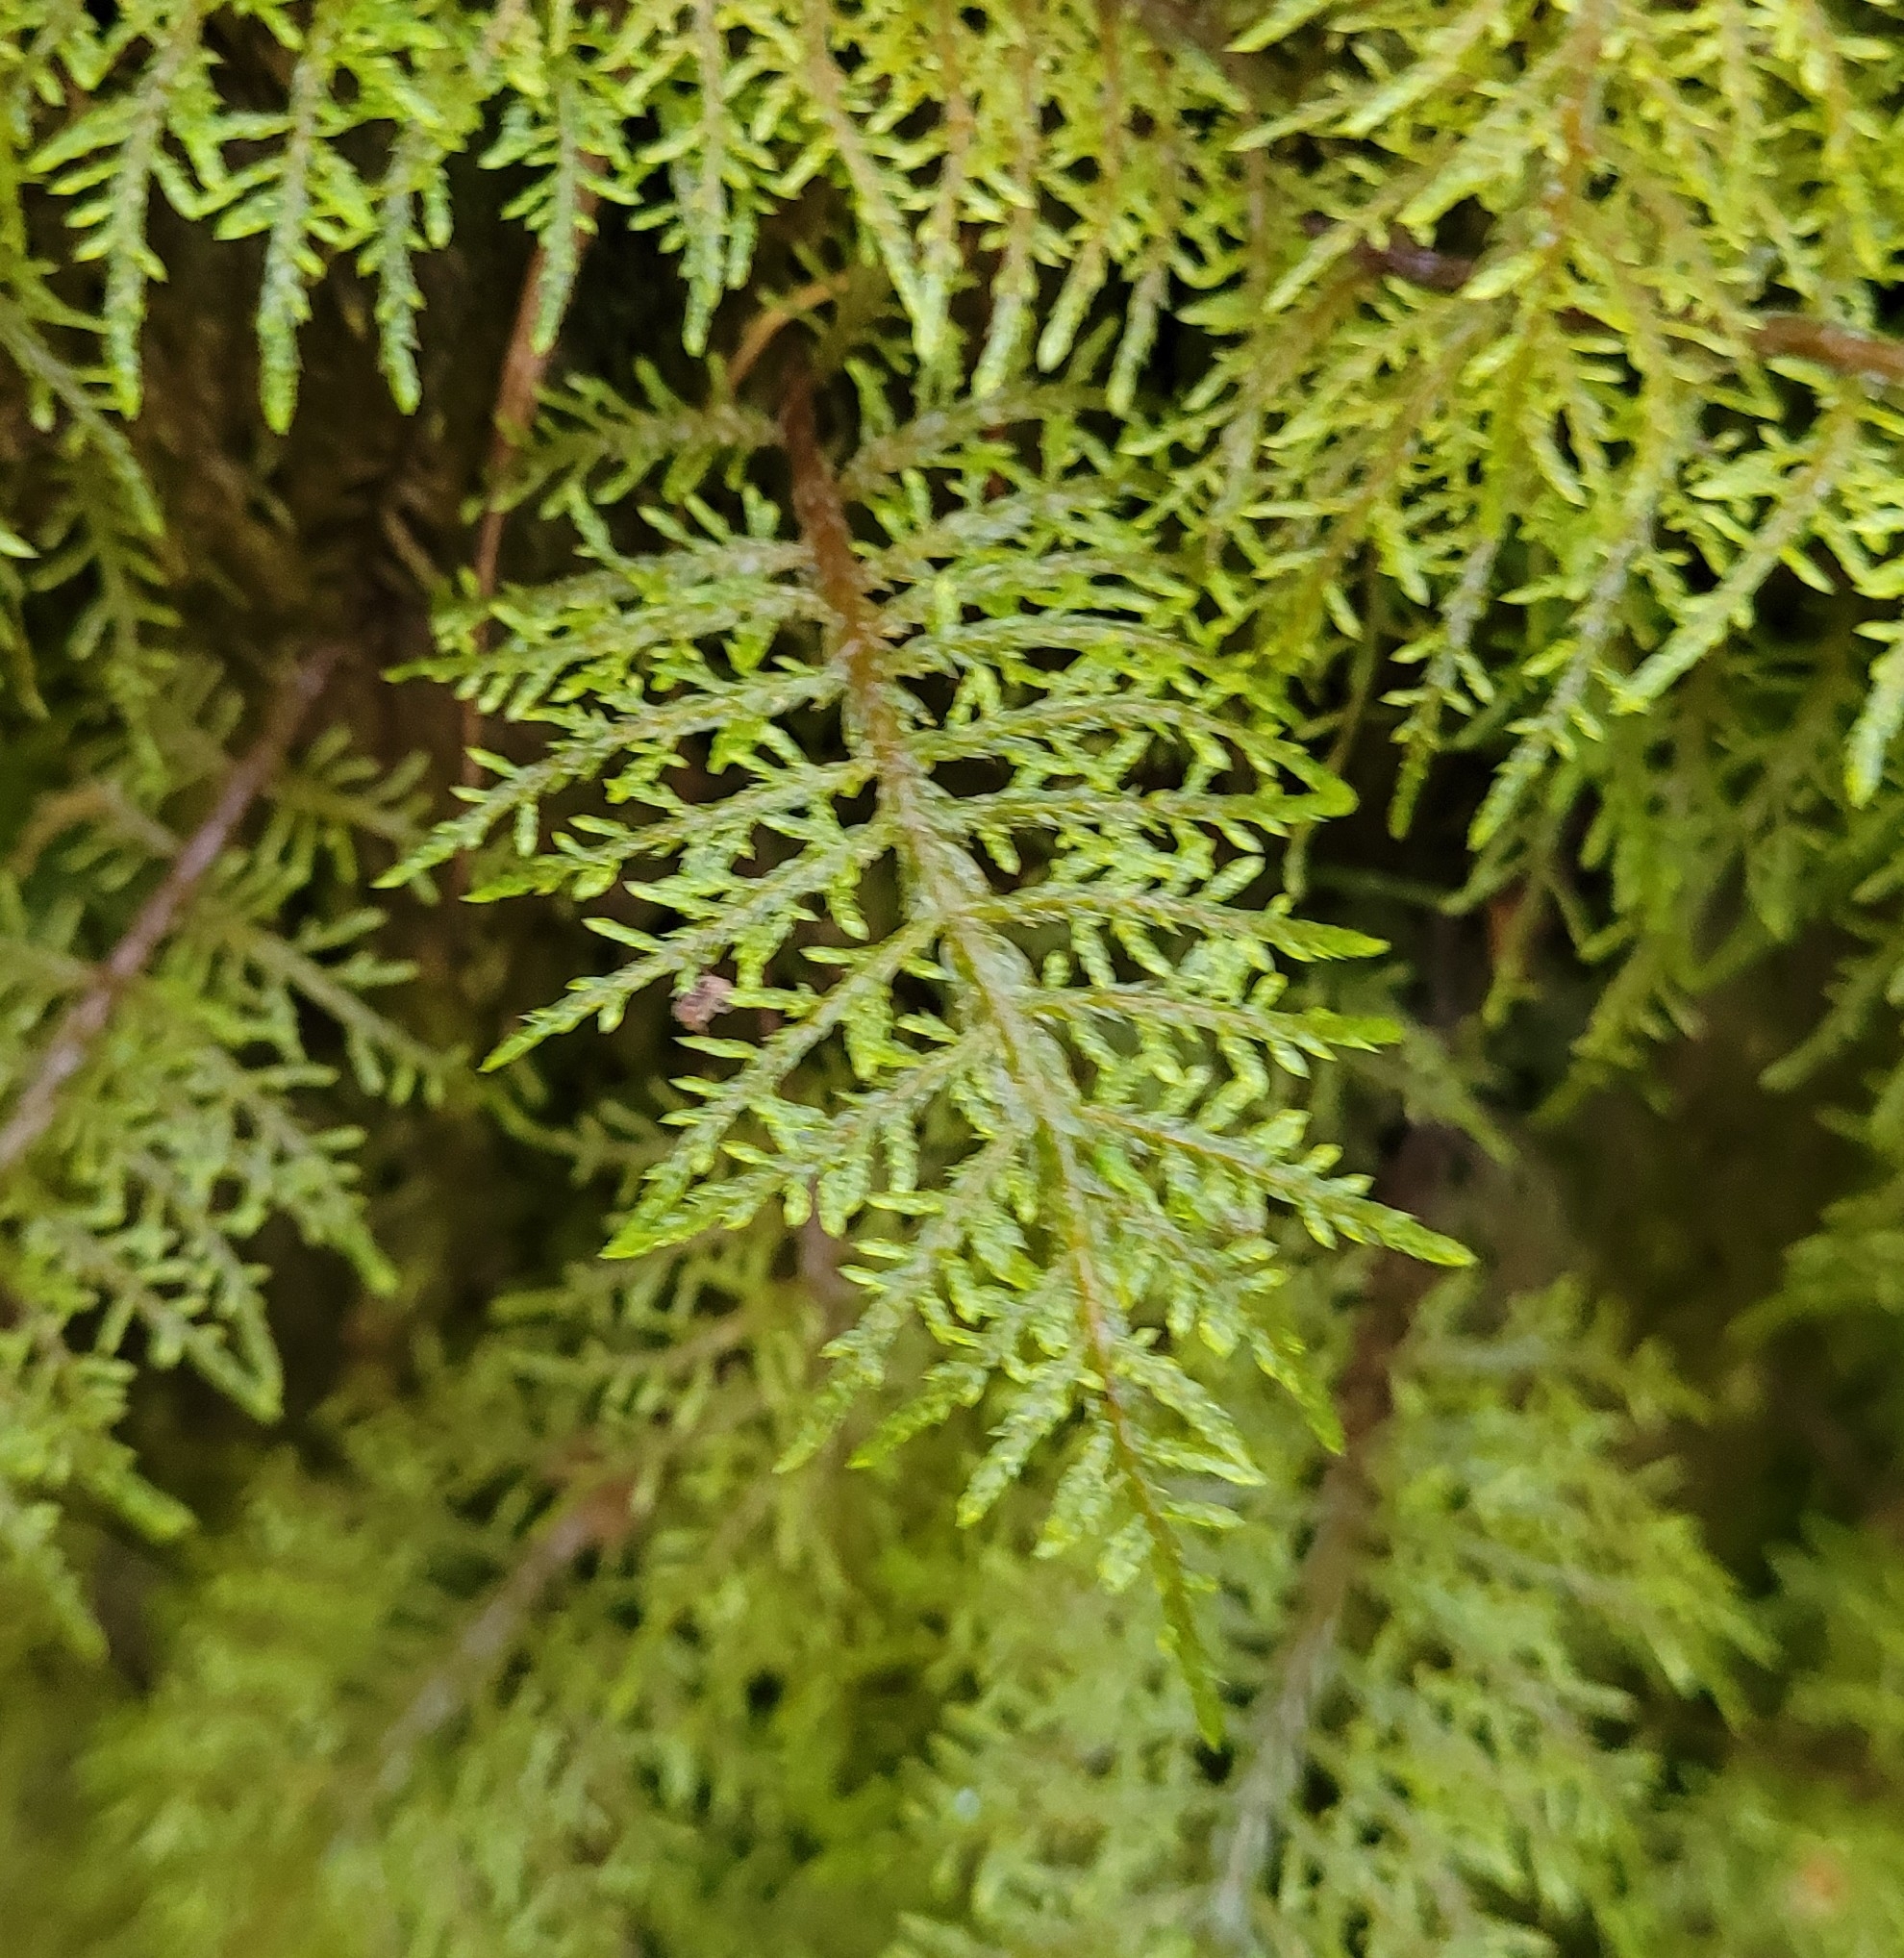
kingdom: Plantae
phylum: Bryophyta
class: Bryopsida
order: Hypnales
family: Hylocomiaceae
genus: Hylocomium
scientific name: Hylocomium splendens
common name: Stairstep moss
